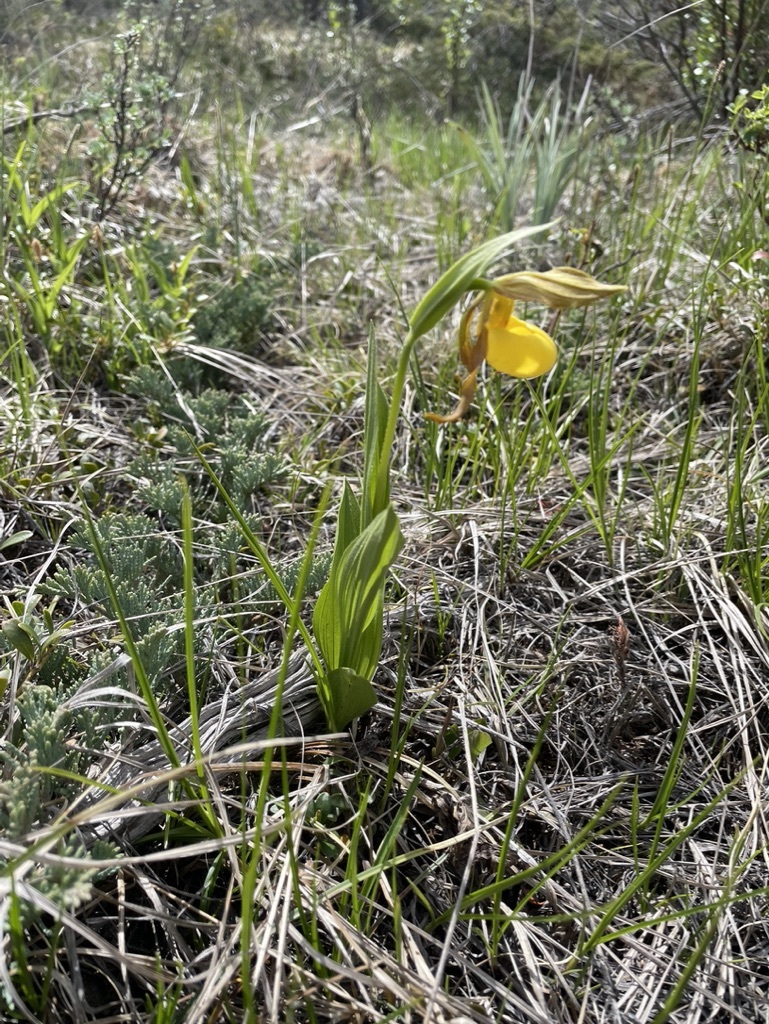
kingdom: Plantae
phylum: Tracheophyta
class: Liliopsida
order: Asparagales
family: Orchidaceae
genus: Cypripedium
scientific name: Cypripedium parviflorum
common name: American yellow lady's-slipper
